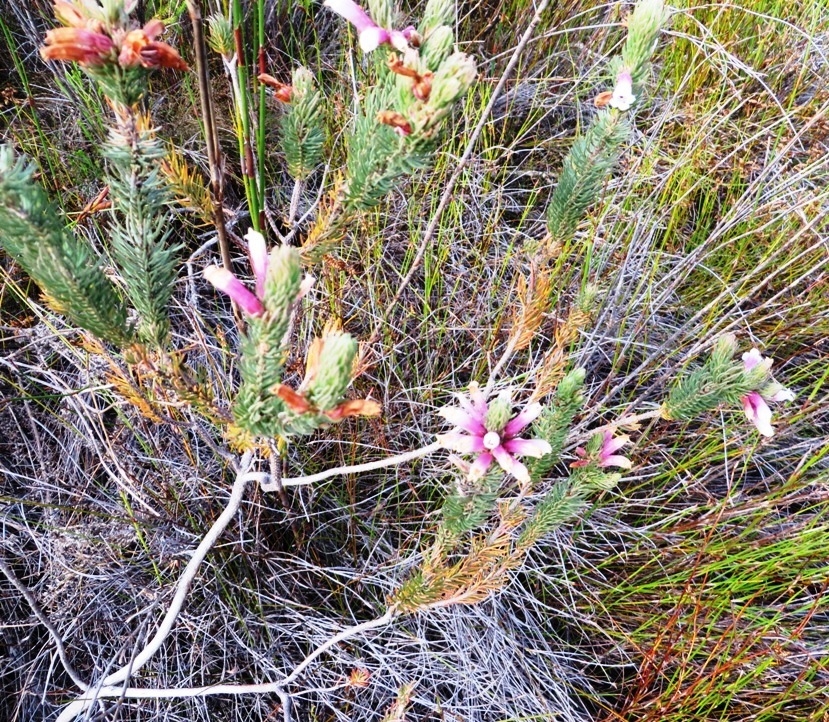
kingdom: Plantae
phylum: Tracheophyta
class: Magnoliopsida
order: Ericales
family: Ericaceae
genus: Erica
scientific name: Erica viscaria
